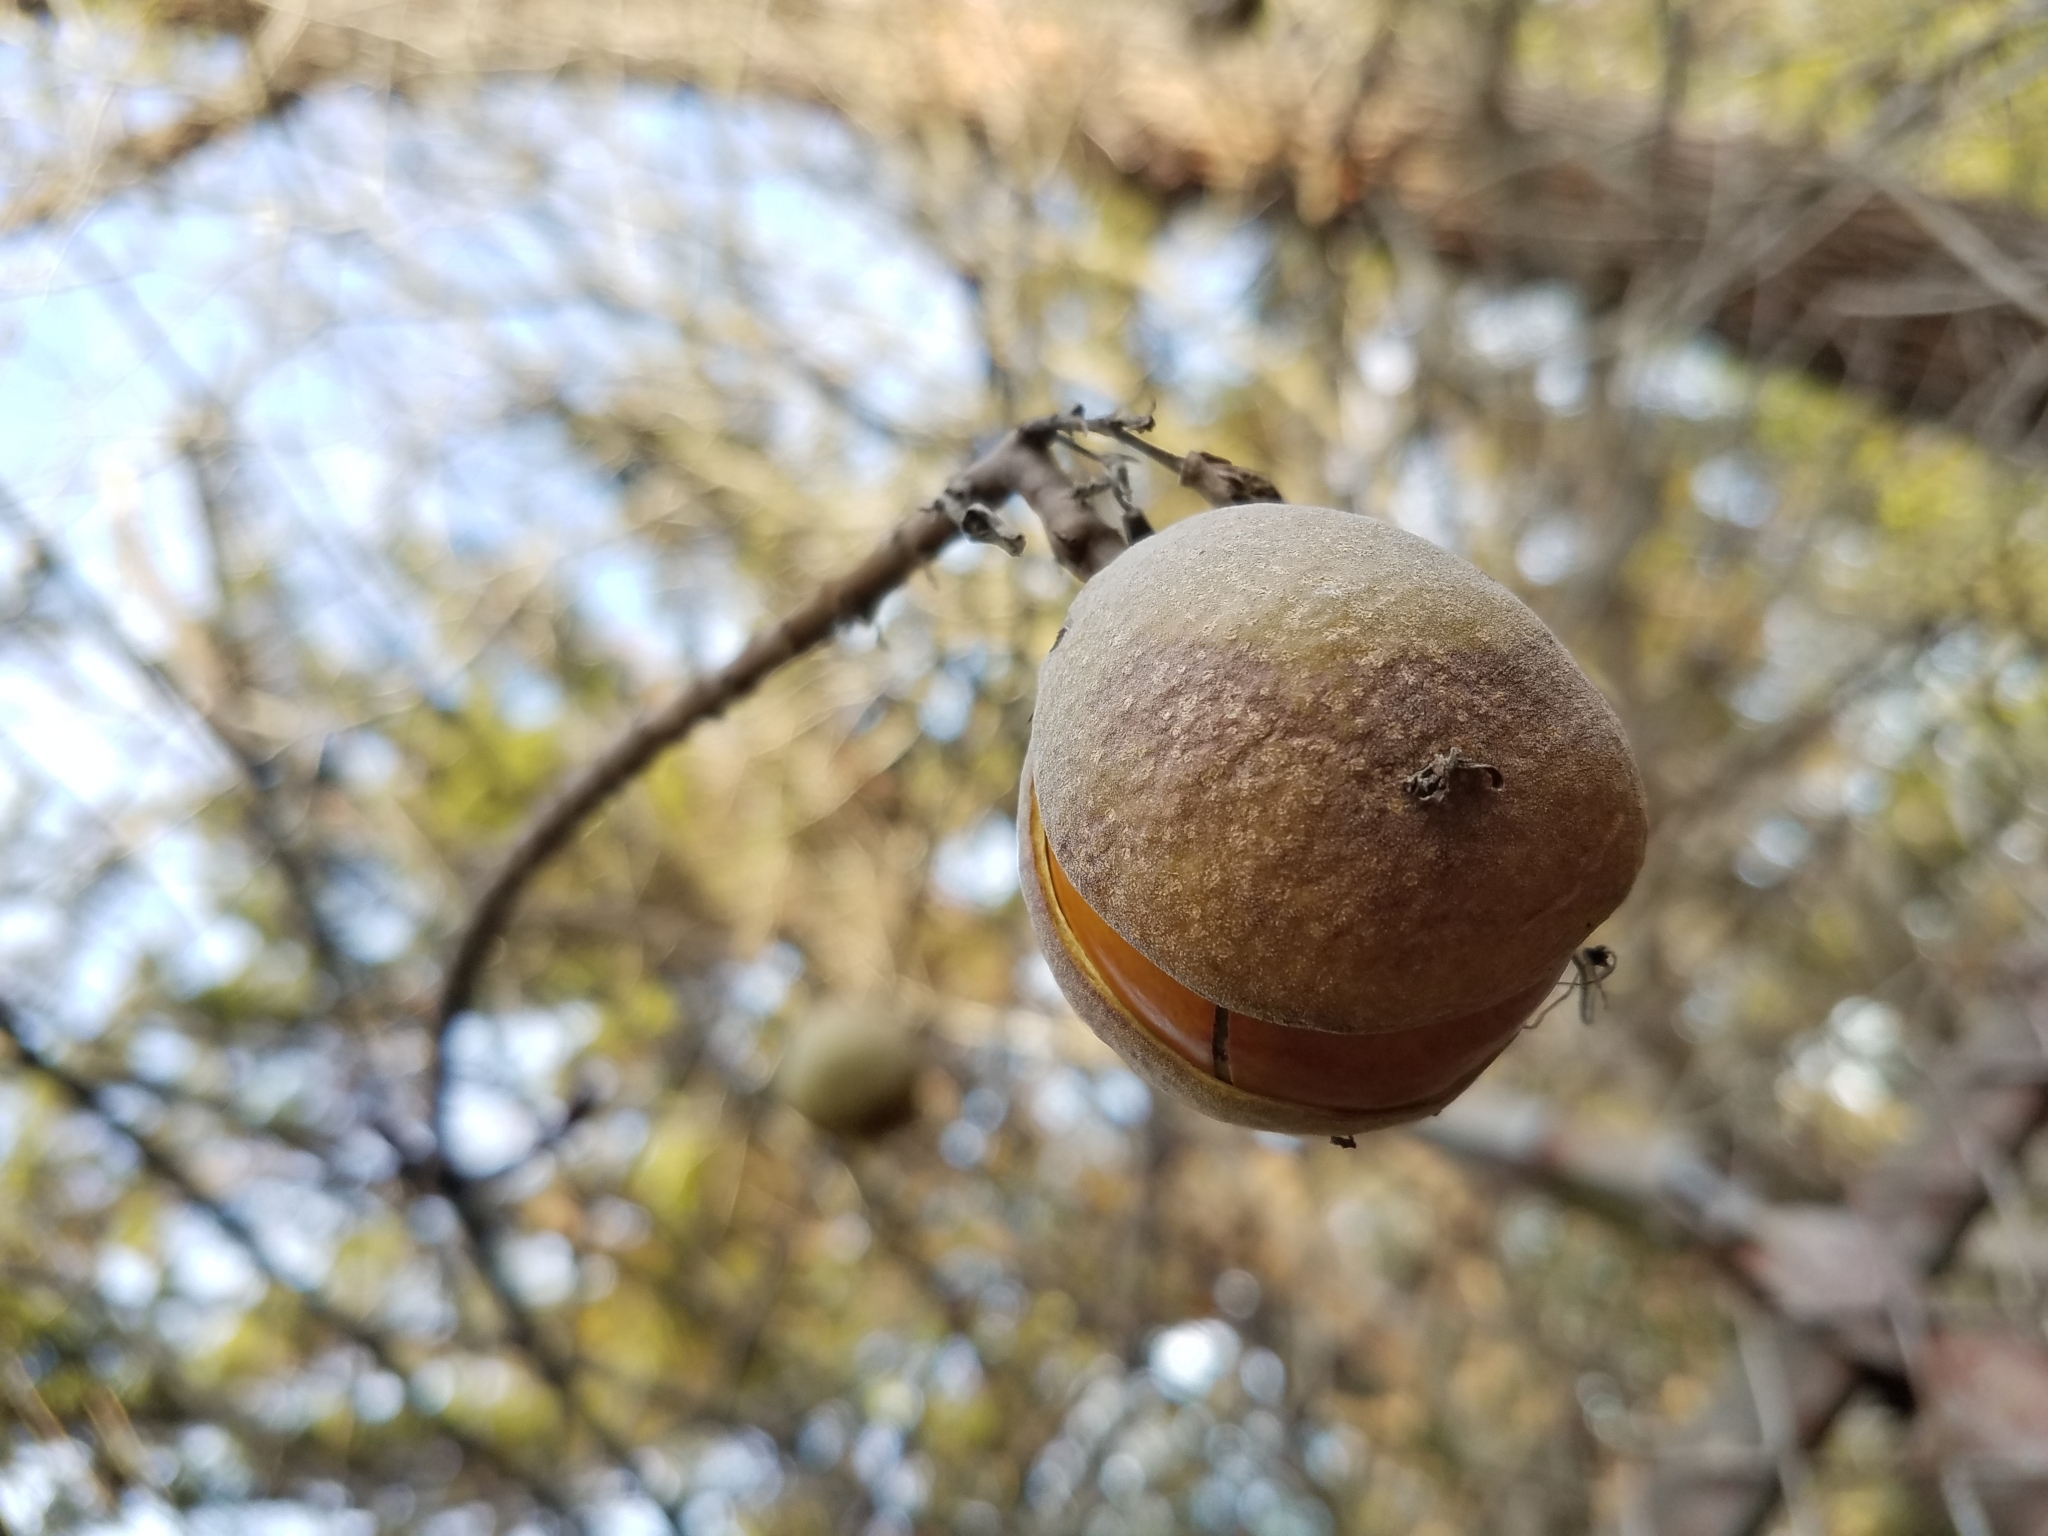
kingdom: Plantae
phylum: Tracheophyta
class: Magnoliopsida
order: Sapindales
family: Sapindaceae
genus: Aesculus
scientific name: Aesculus californica
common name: California buckeye
